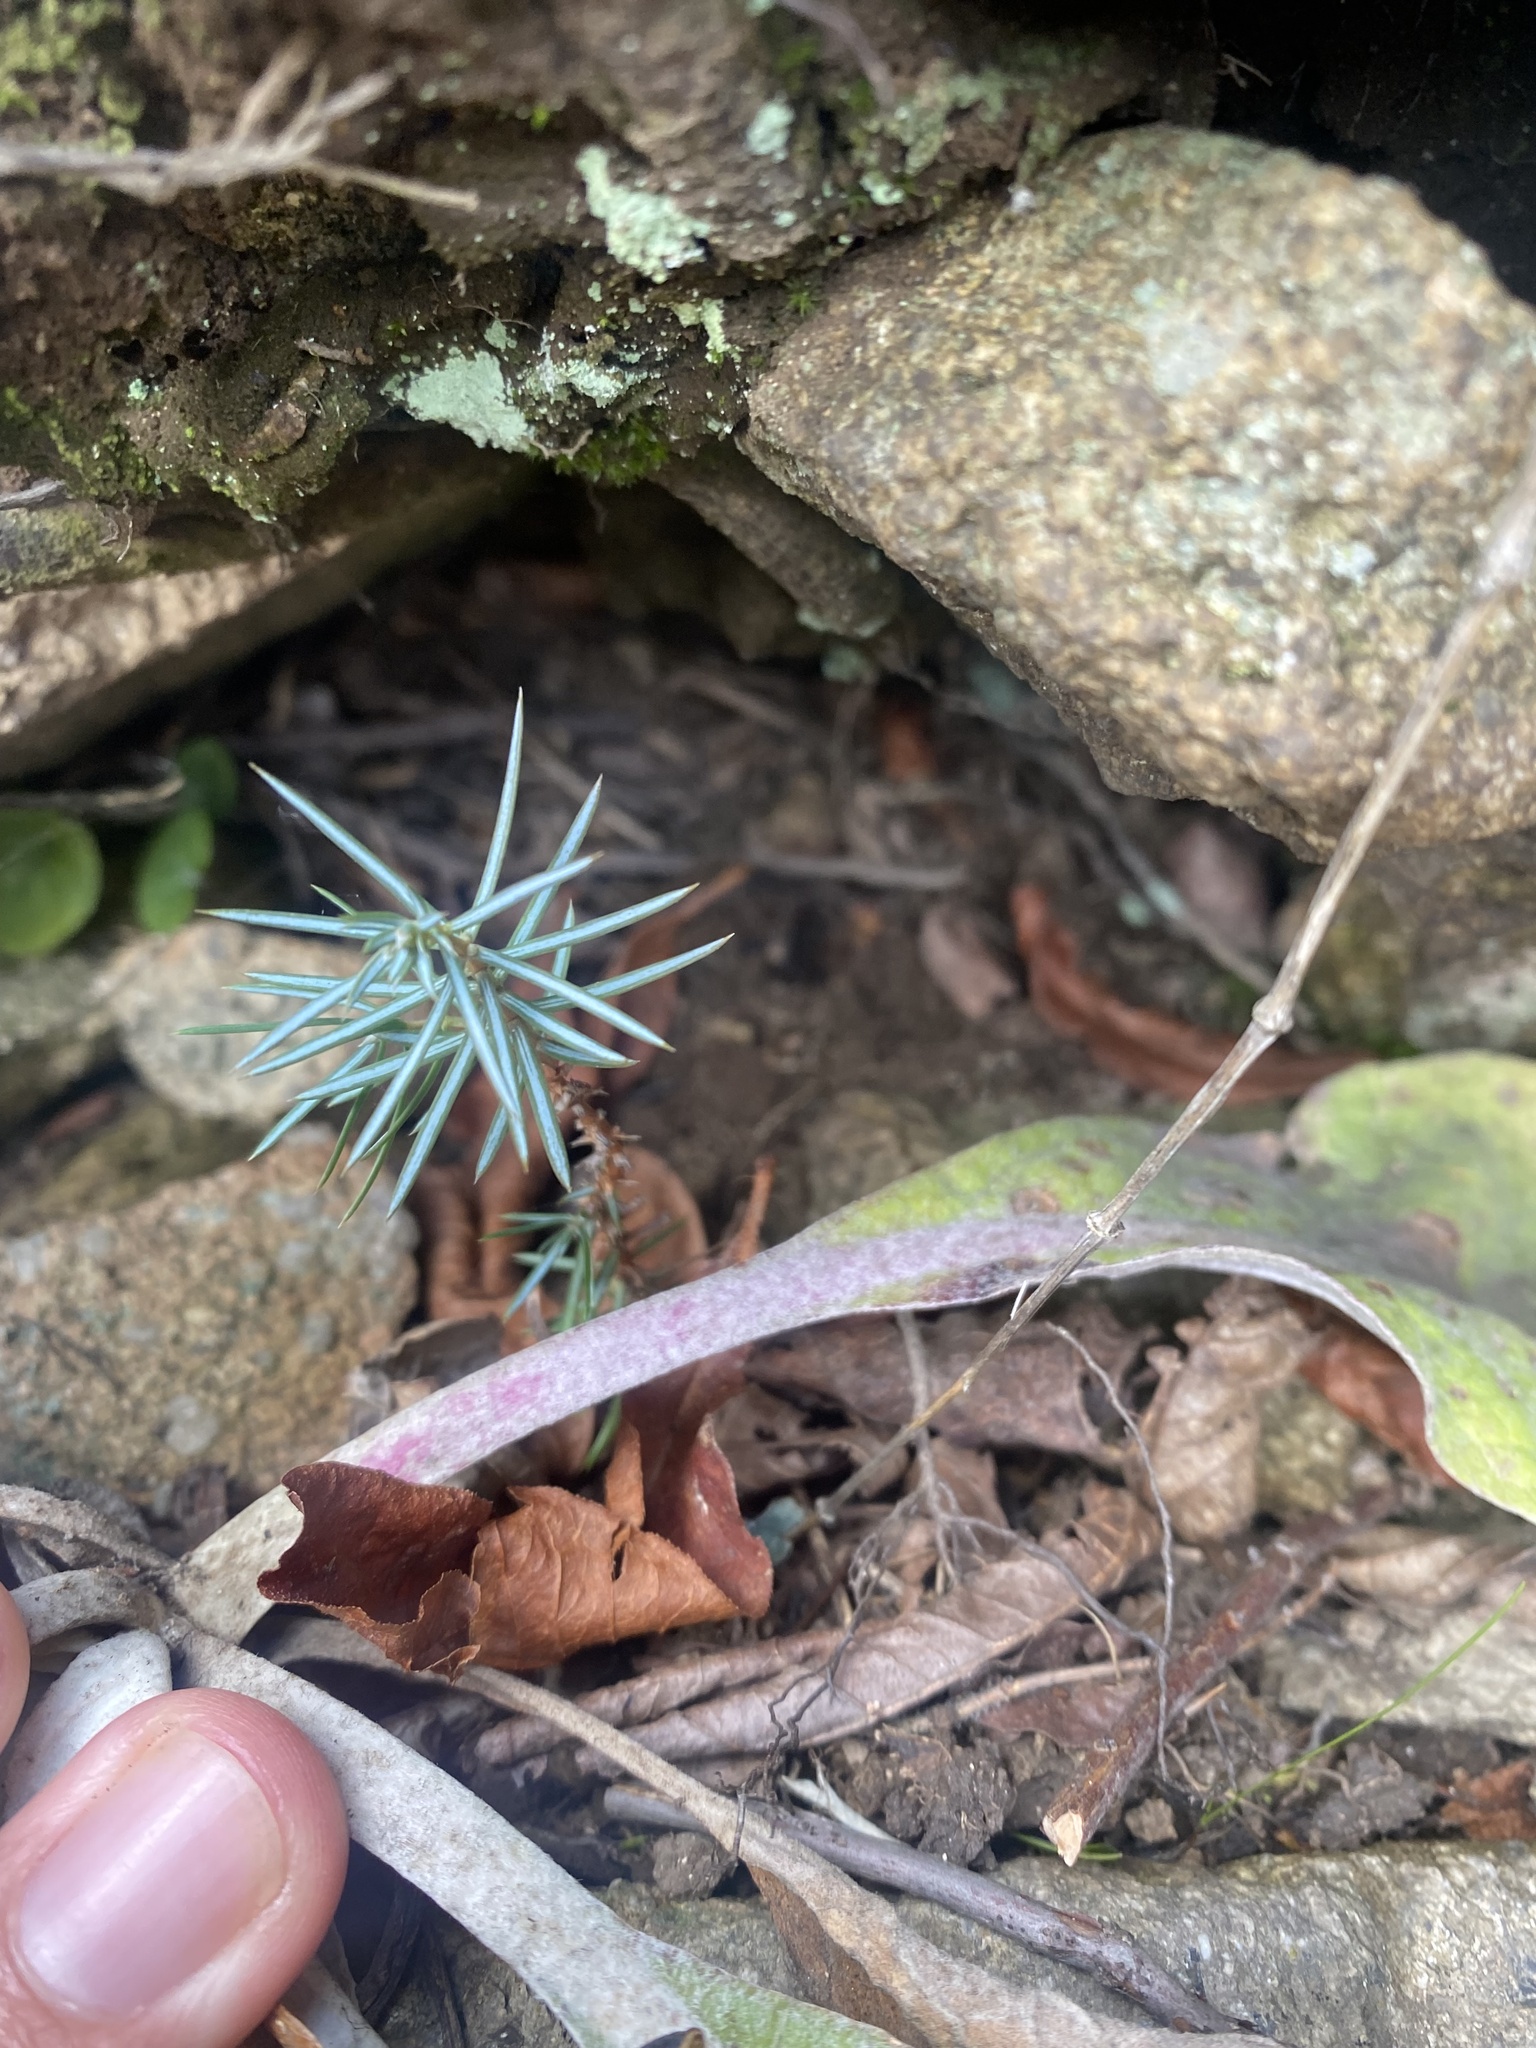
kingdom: Plantae
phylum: Tracheophyta
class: Pinopsida
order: Pinales
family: Cupressaceae
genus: Juniperus
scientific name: Juniperus communis
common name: Common juniper
